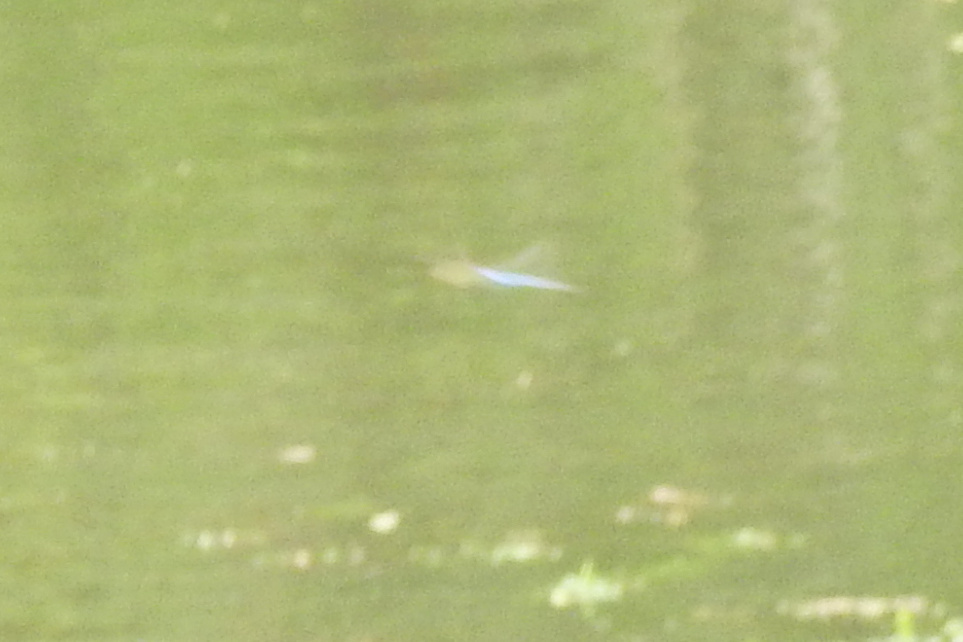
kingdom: Animalia
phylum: Arthropoda
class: Insecta
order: Odonata
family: Aeshnidae
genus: Anax
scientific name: Anax junius
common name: Common green darner
